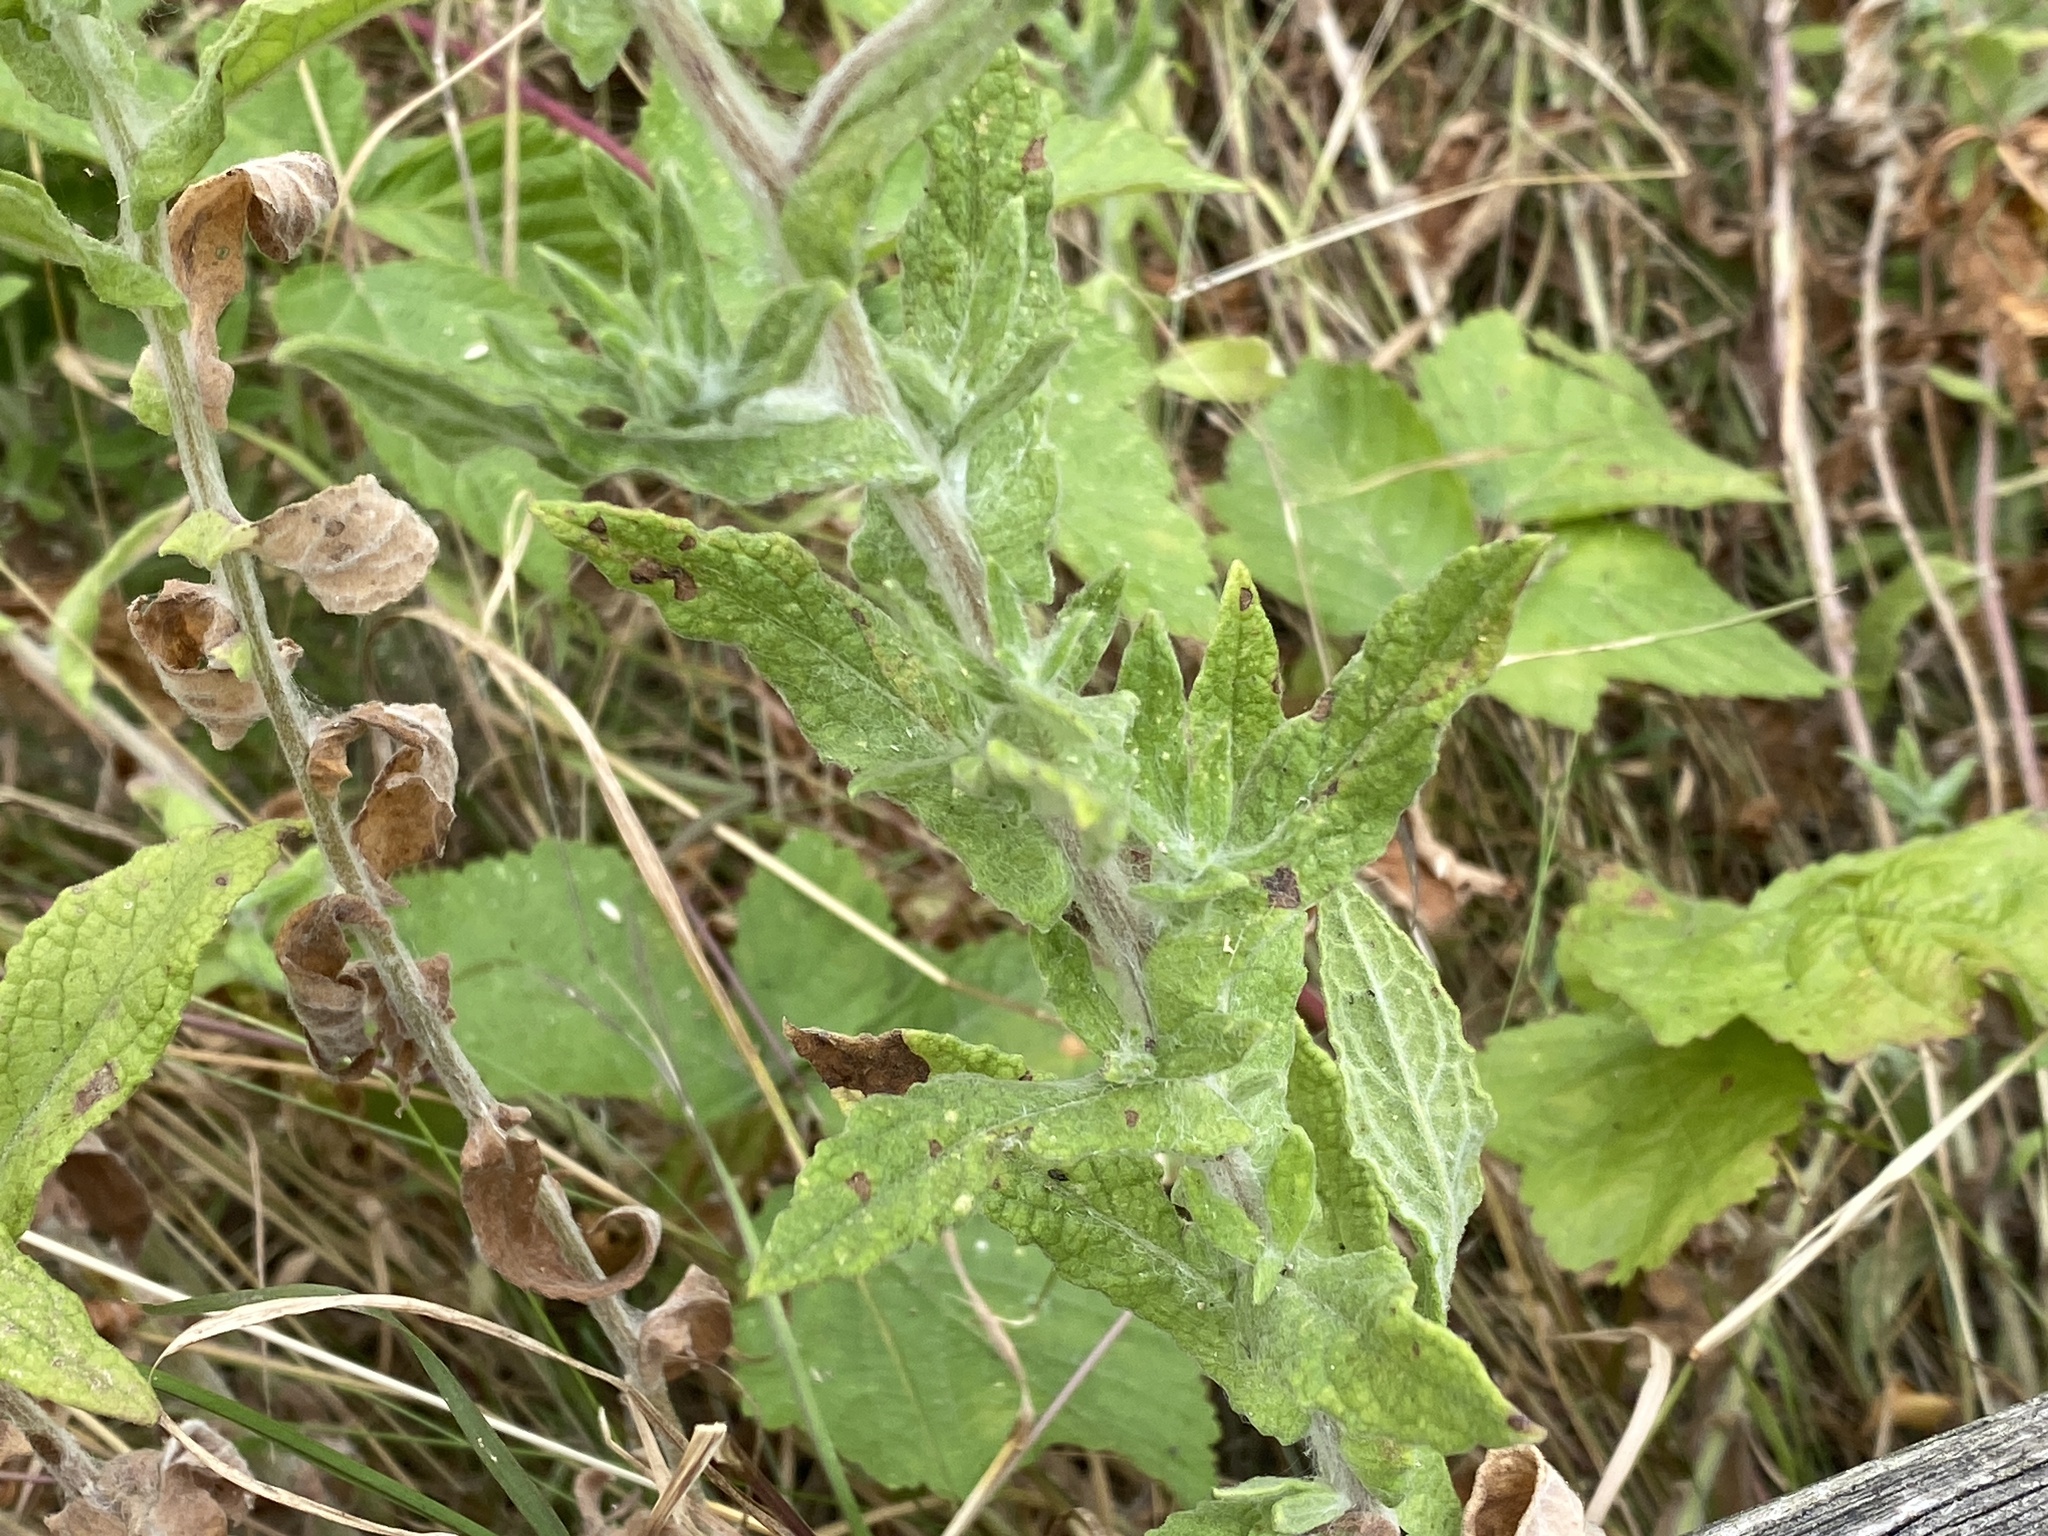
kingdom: Plantae
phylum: Tracheophyta
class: Magnoliopsida
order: Asterales
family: Asteraceae
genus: Pulicaria
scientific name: Pulicaria dysenterica
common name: Common fleabane
